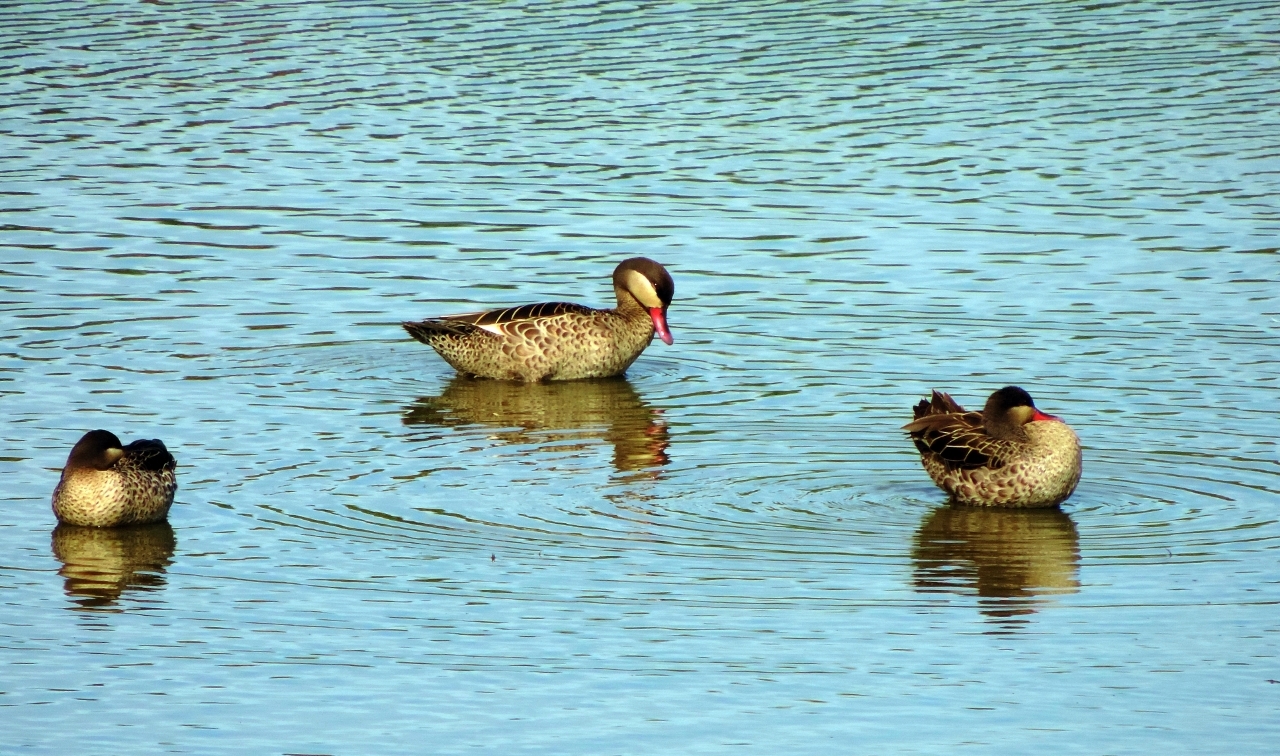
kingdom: Animalia
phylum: Chordata
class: Aves
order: Anseriformes
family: Anatidae
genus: Anas
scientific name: Anas erythrorhyncha
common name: Red-billed teal
